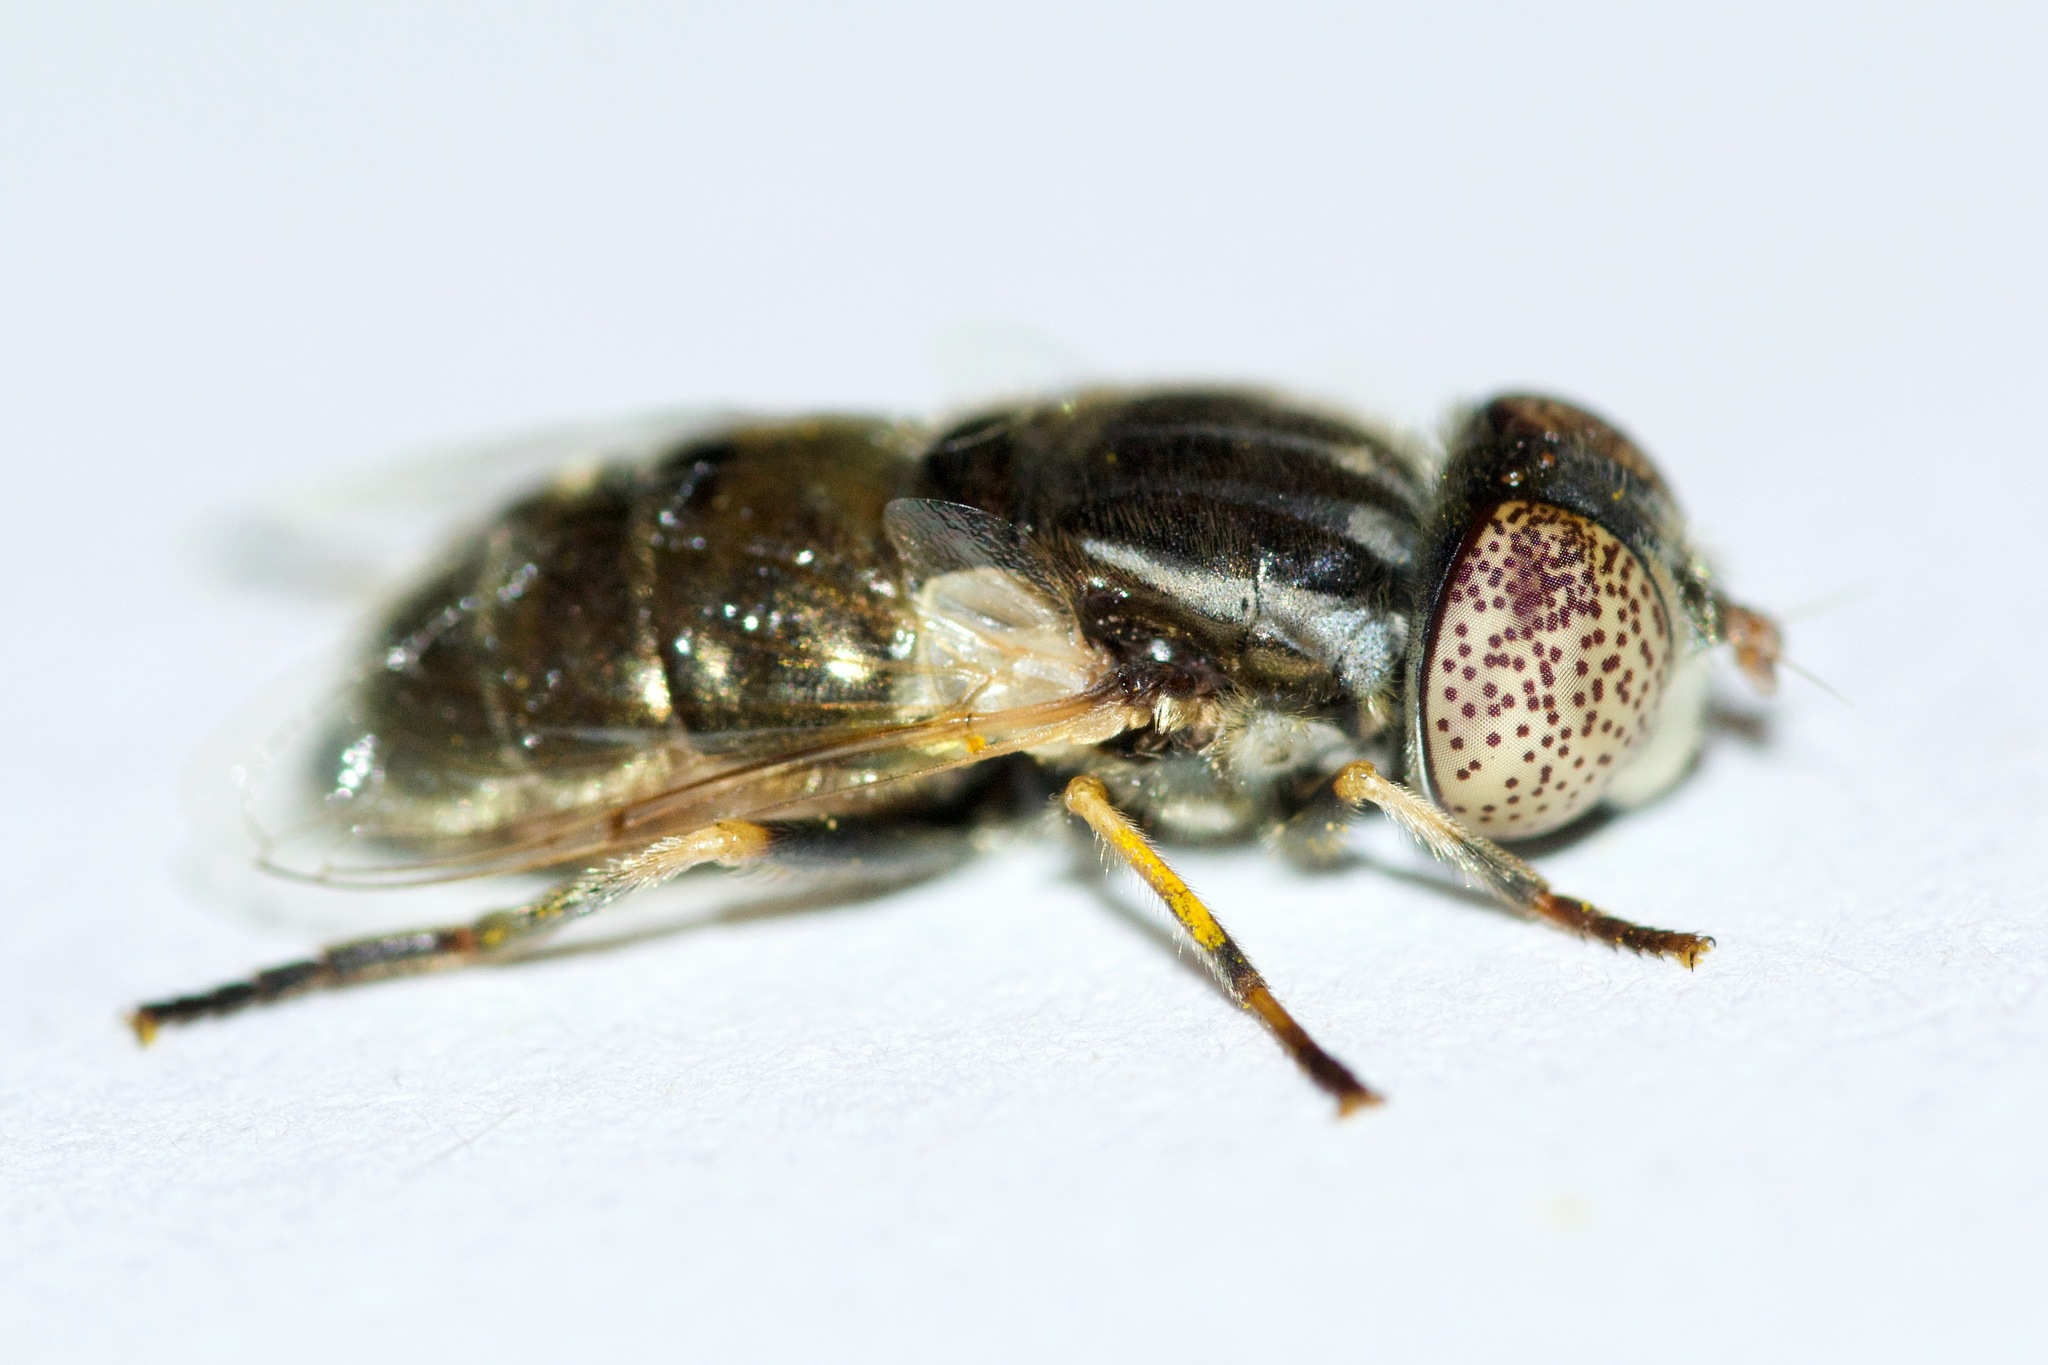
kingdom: Animalia
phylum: Arthropoda
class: Insecta
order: Diptera
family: Syrphidae
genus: Eristalinus
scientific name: Eristalinus aeneus
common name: Syrphid fly
